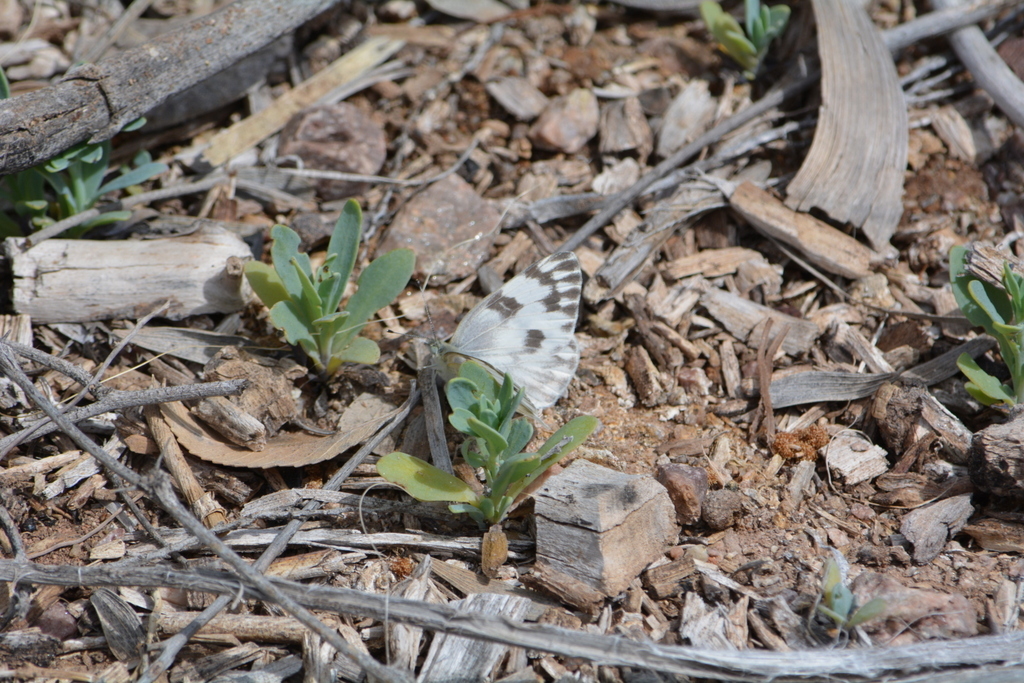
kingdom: Animalia
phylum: Arthropoda
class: Insecta
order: Lepidoptera
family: Pieridae
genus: Pontia
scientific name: Pontia protodice
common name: Checkered white
